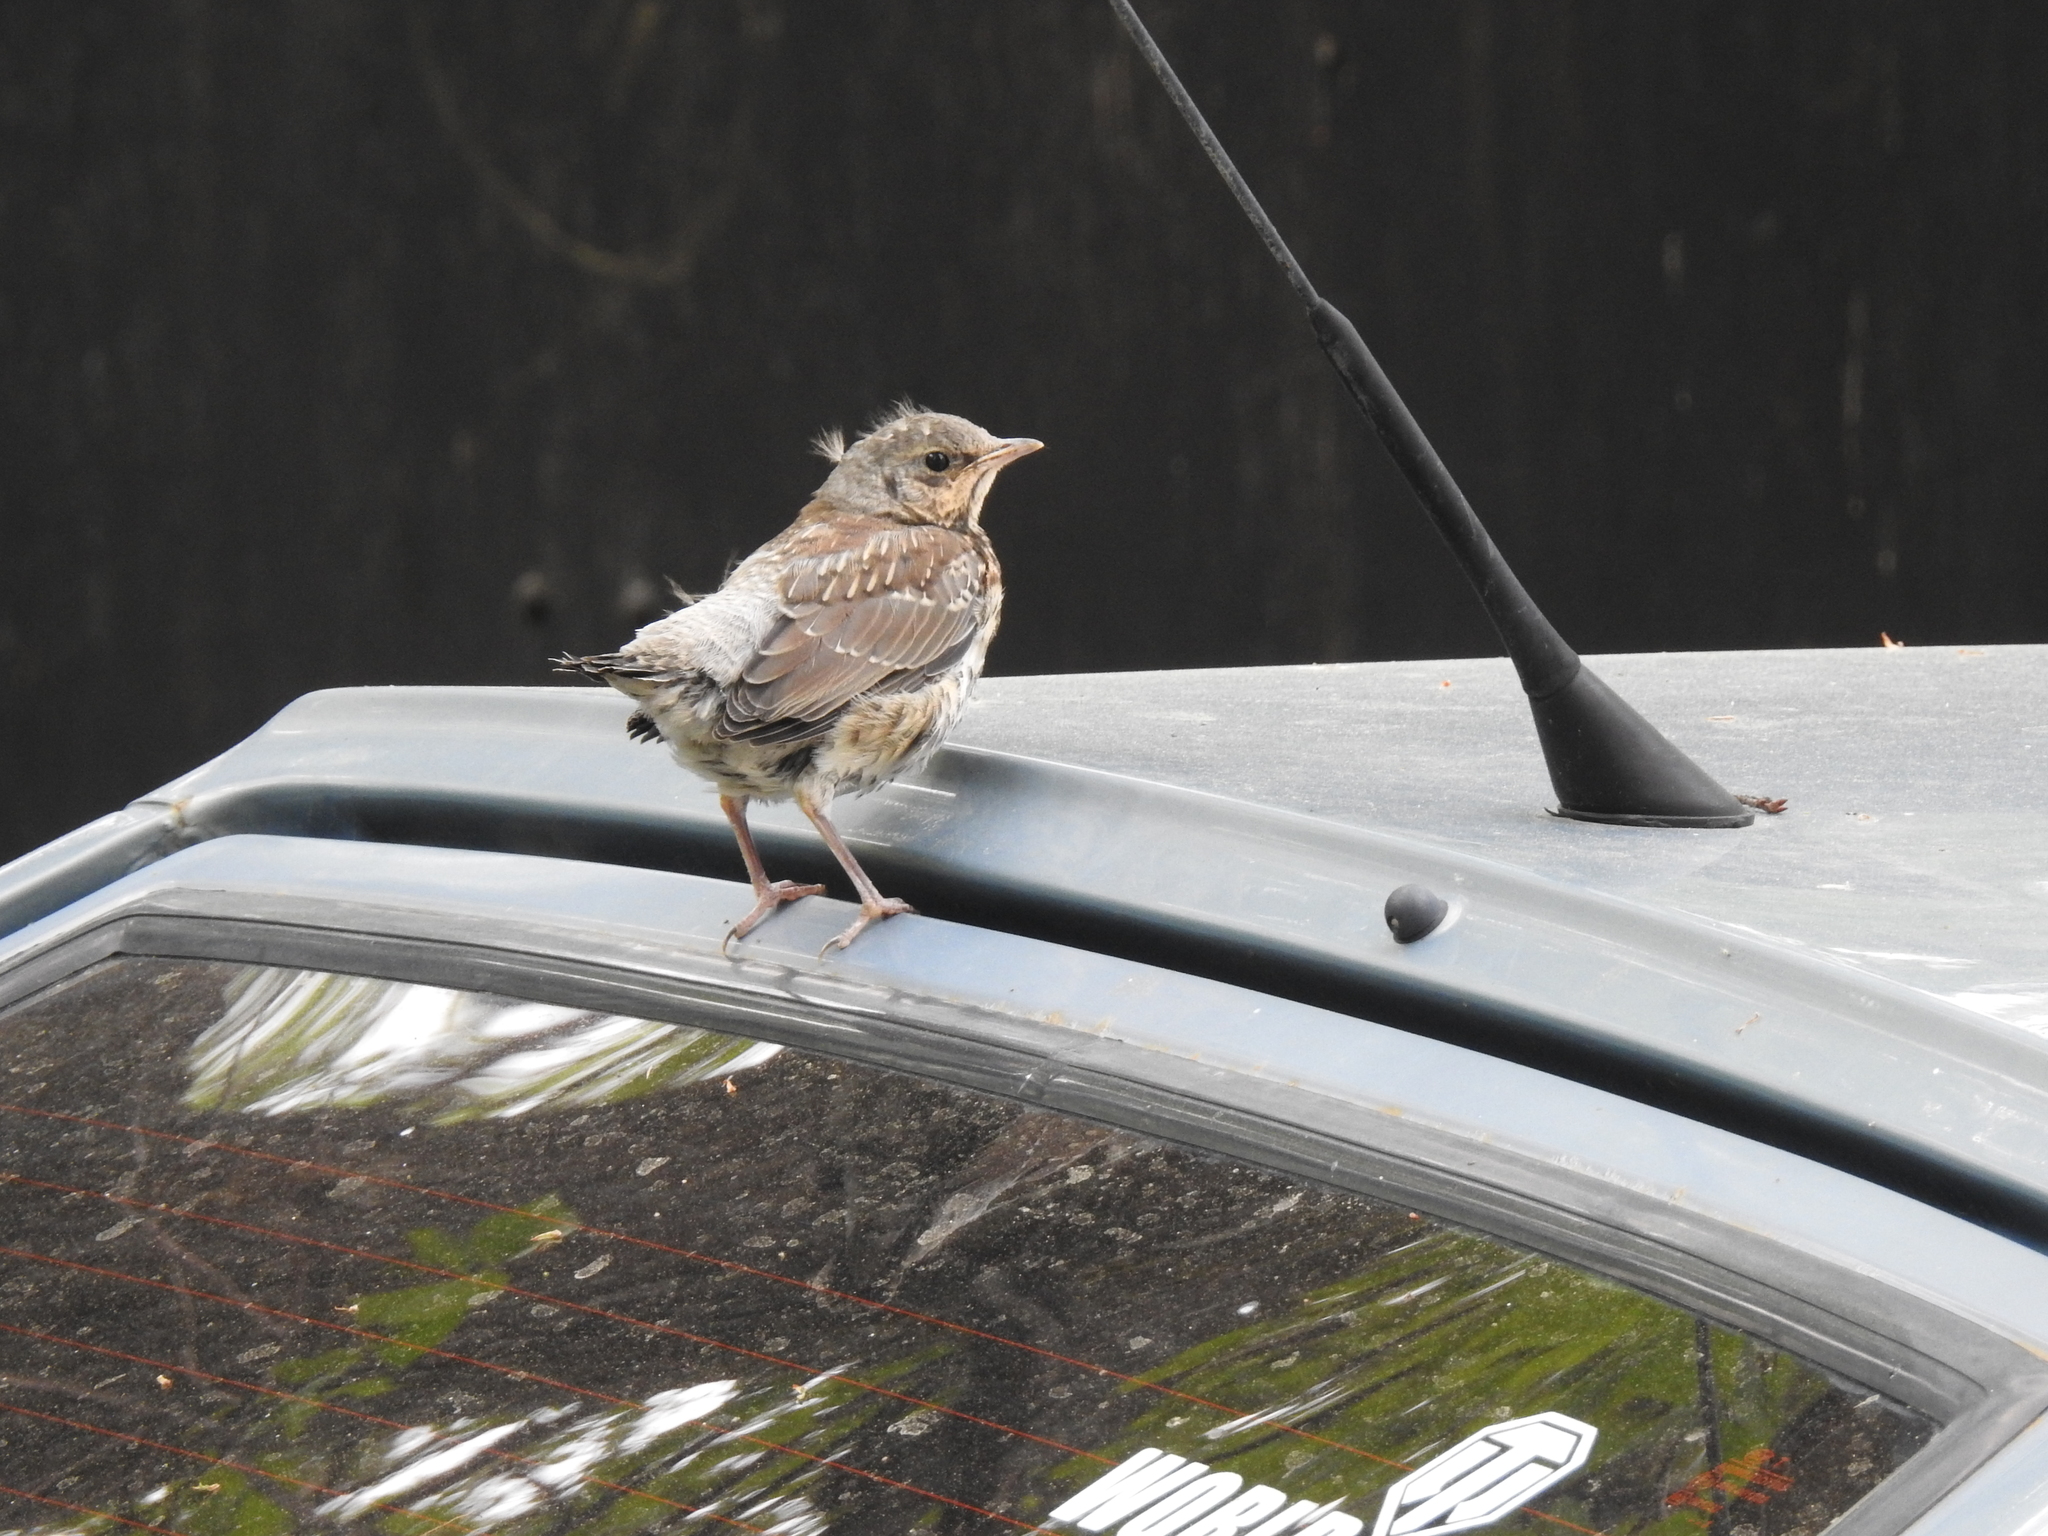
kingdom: Animalia
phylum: Chordata
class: Aves
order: Passeriformes
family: Turdidae
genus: Turdus
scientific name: Turdus pilaris
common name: Fieldfare
